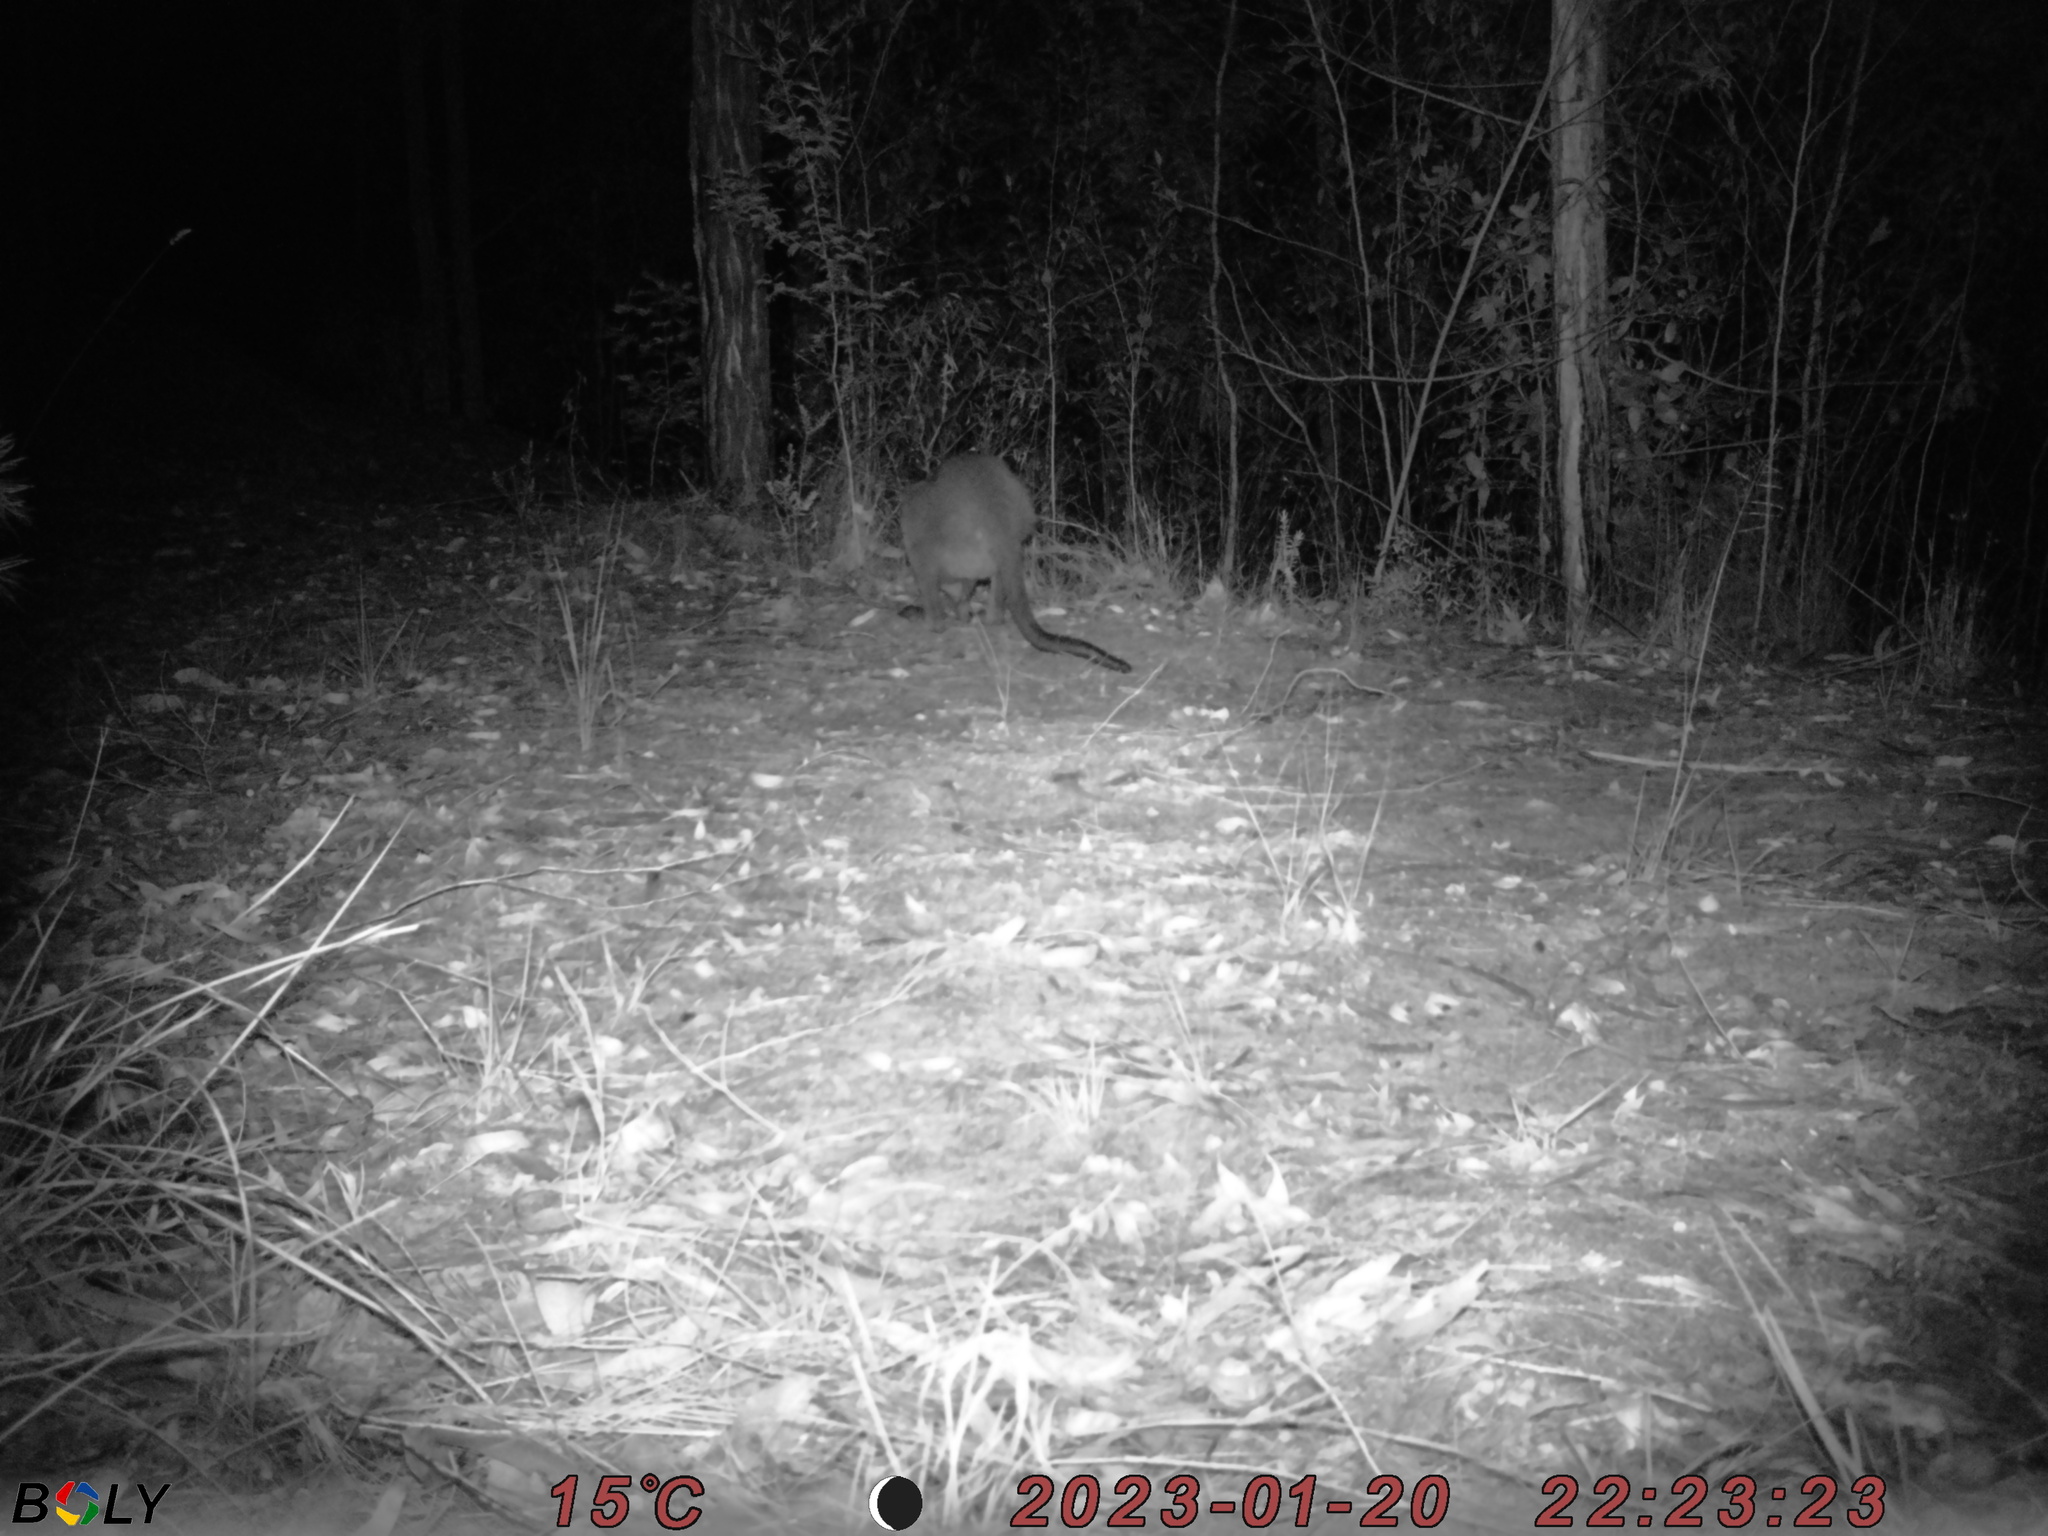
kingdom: Animalia
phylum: Chordata
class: Mammalia
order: Diprotodontia
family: Macropodidae
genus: Wallabia
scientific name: Wallabia bicolor
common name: Swamp wallaby
